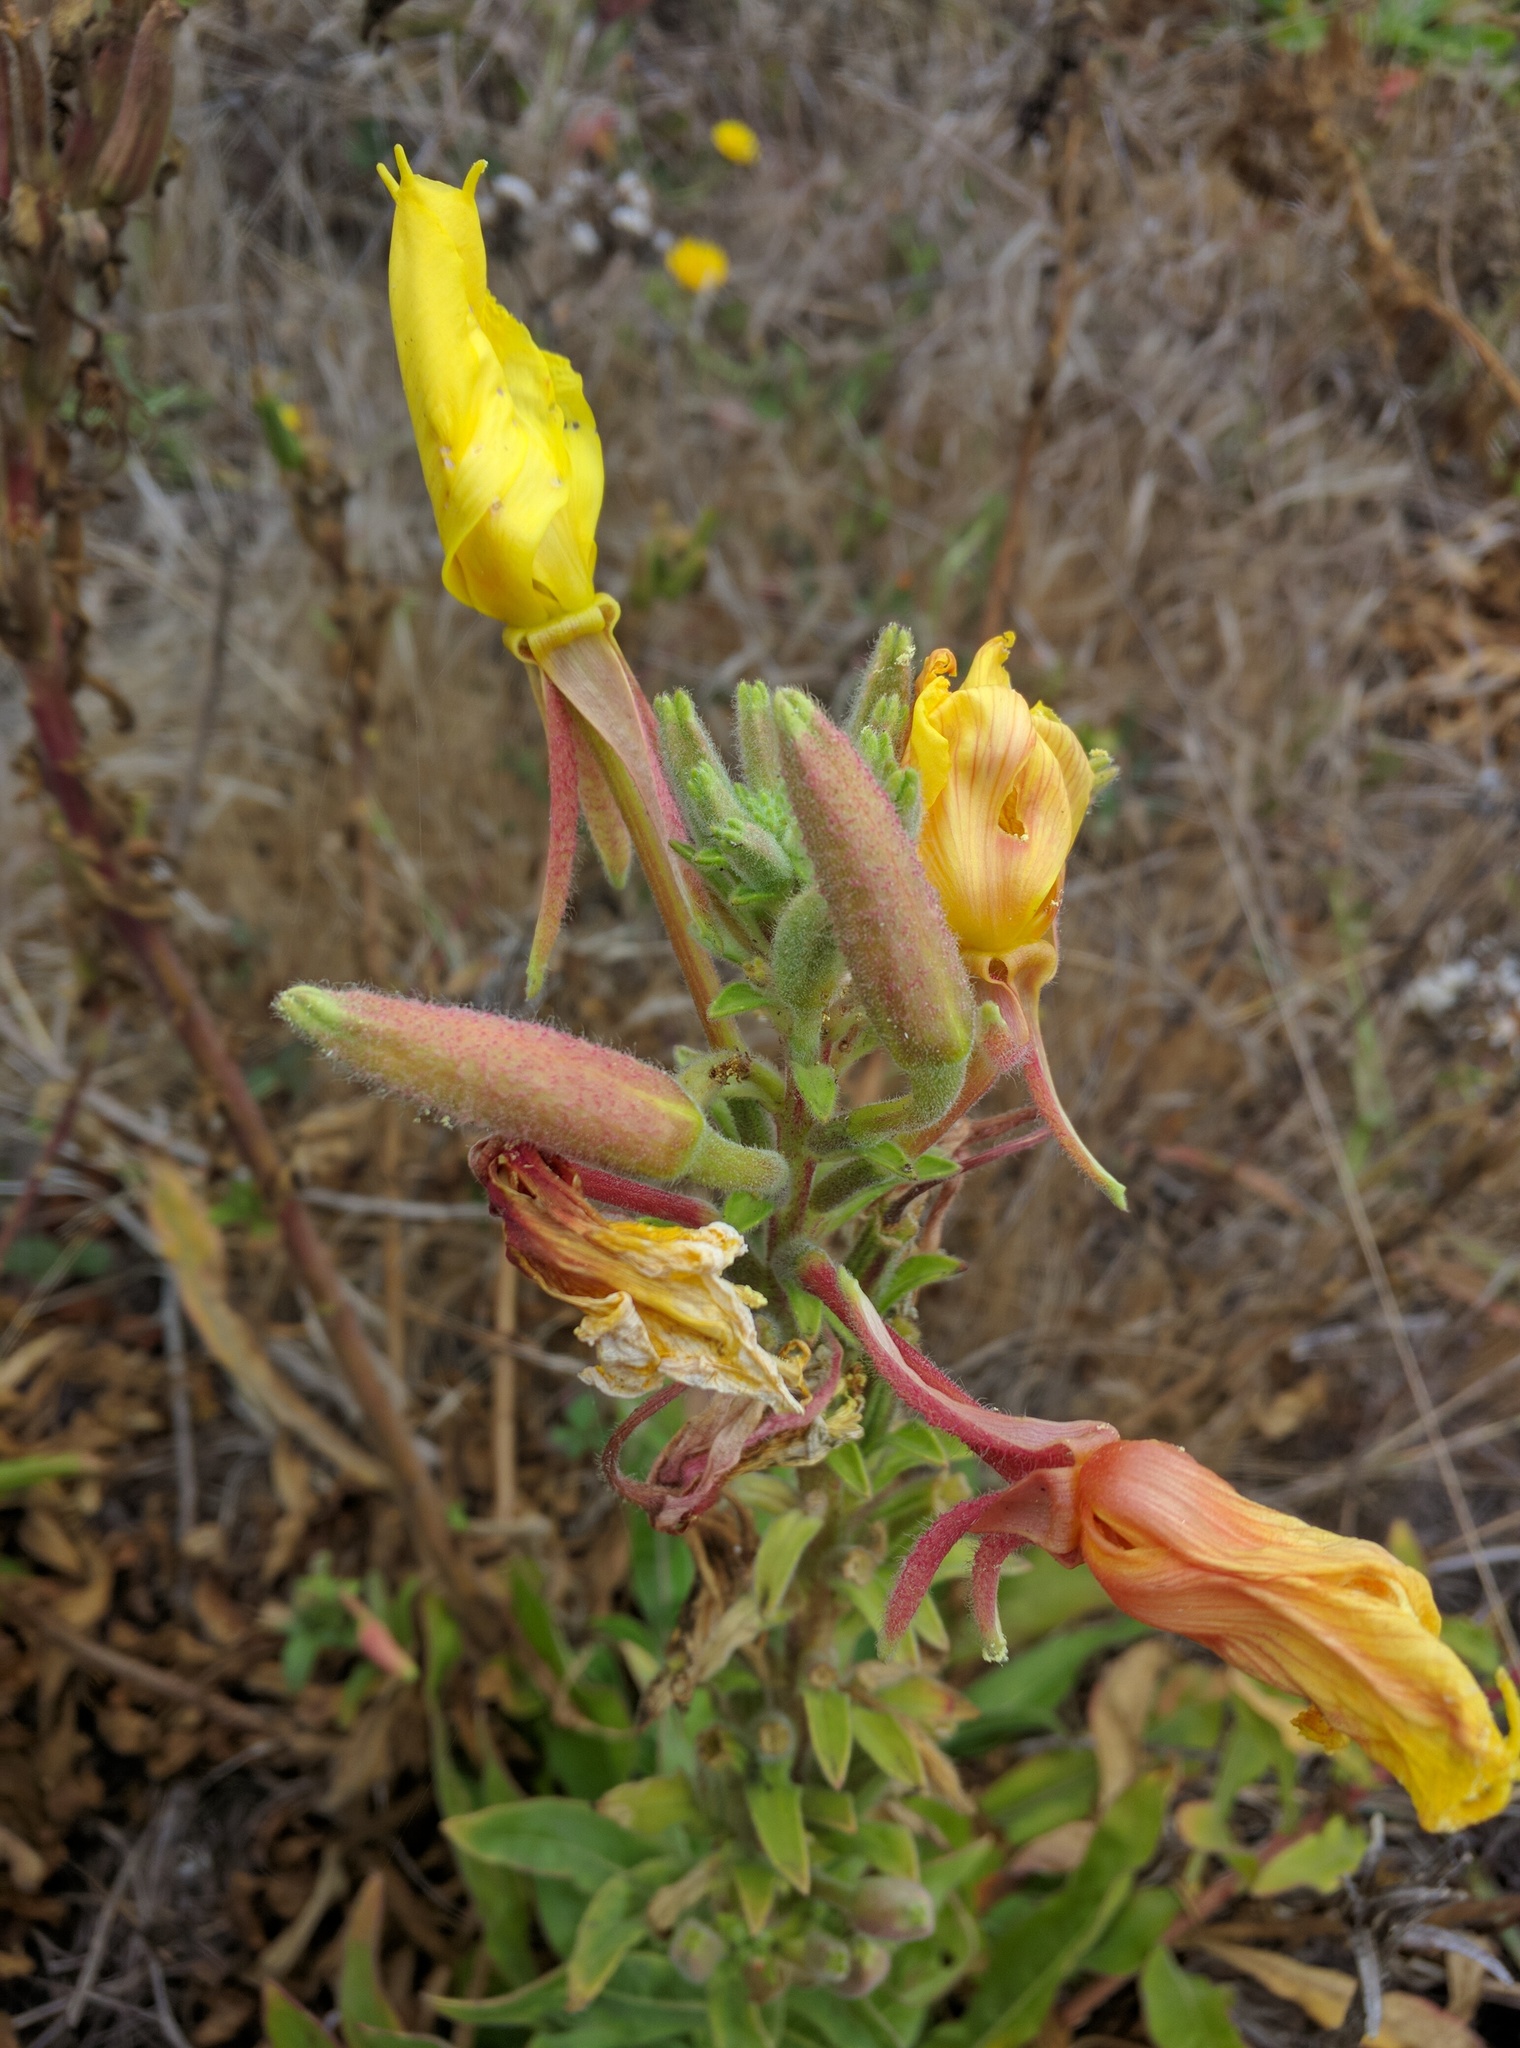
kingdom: Plantae
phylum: Tracheophyta
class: Magnoliopsida
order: Myrtales
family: Onagraceae
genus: Oenothera
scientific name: Oenothera elata
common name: Hooker's evening-primrose
